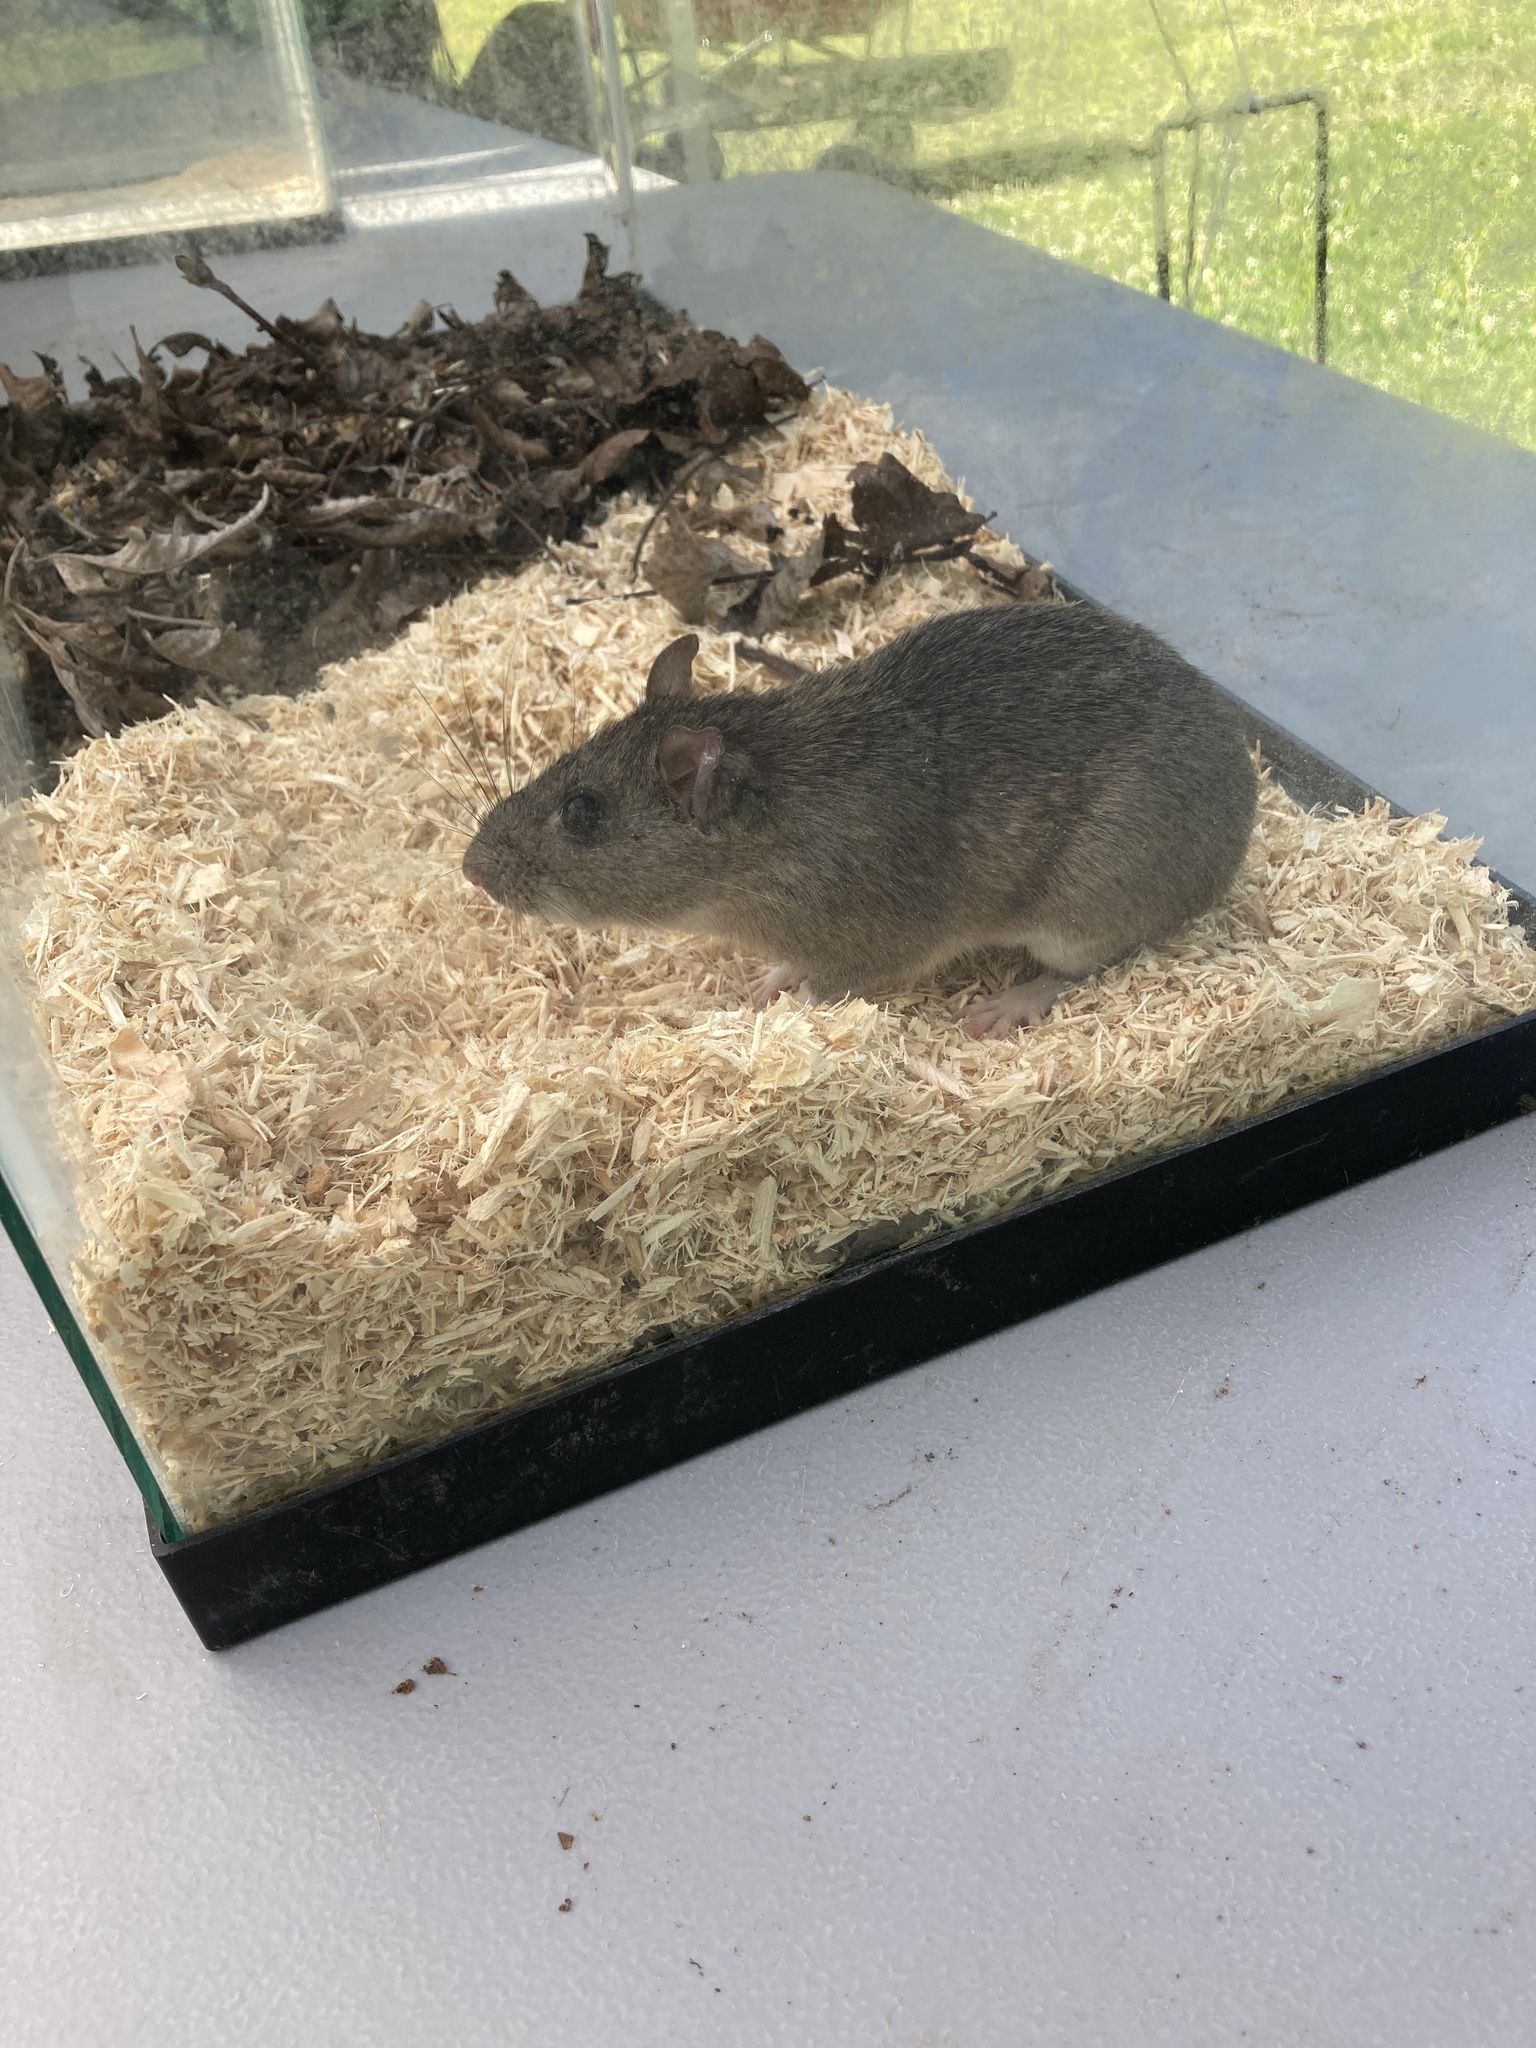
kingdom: Animalia
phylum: Chordata
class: Mammalia
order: Rodentia
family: Cricetidae
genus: Neotoma
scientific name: Neotoma floridana
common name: Eastern woodrat
